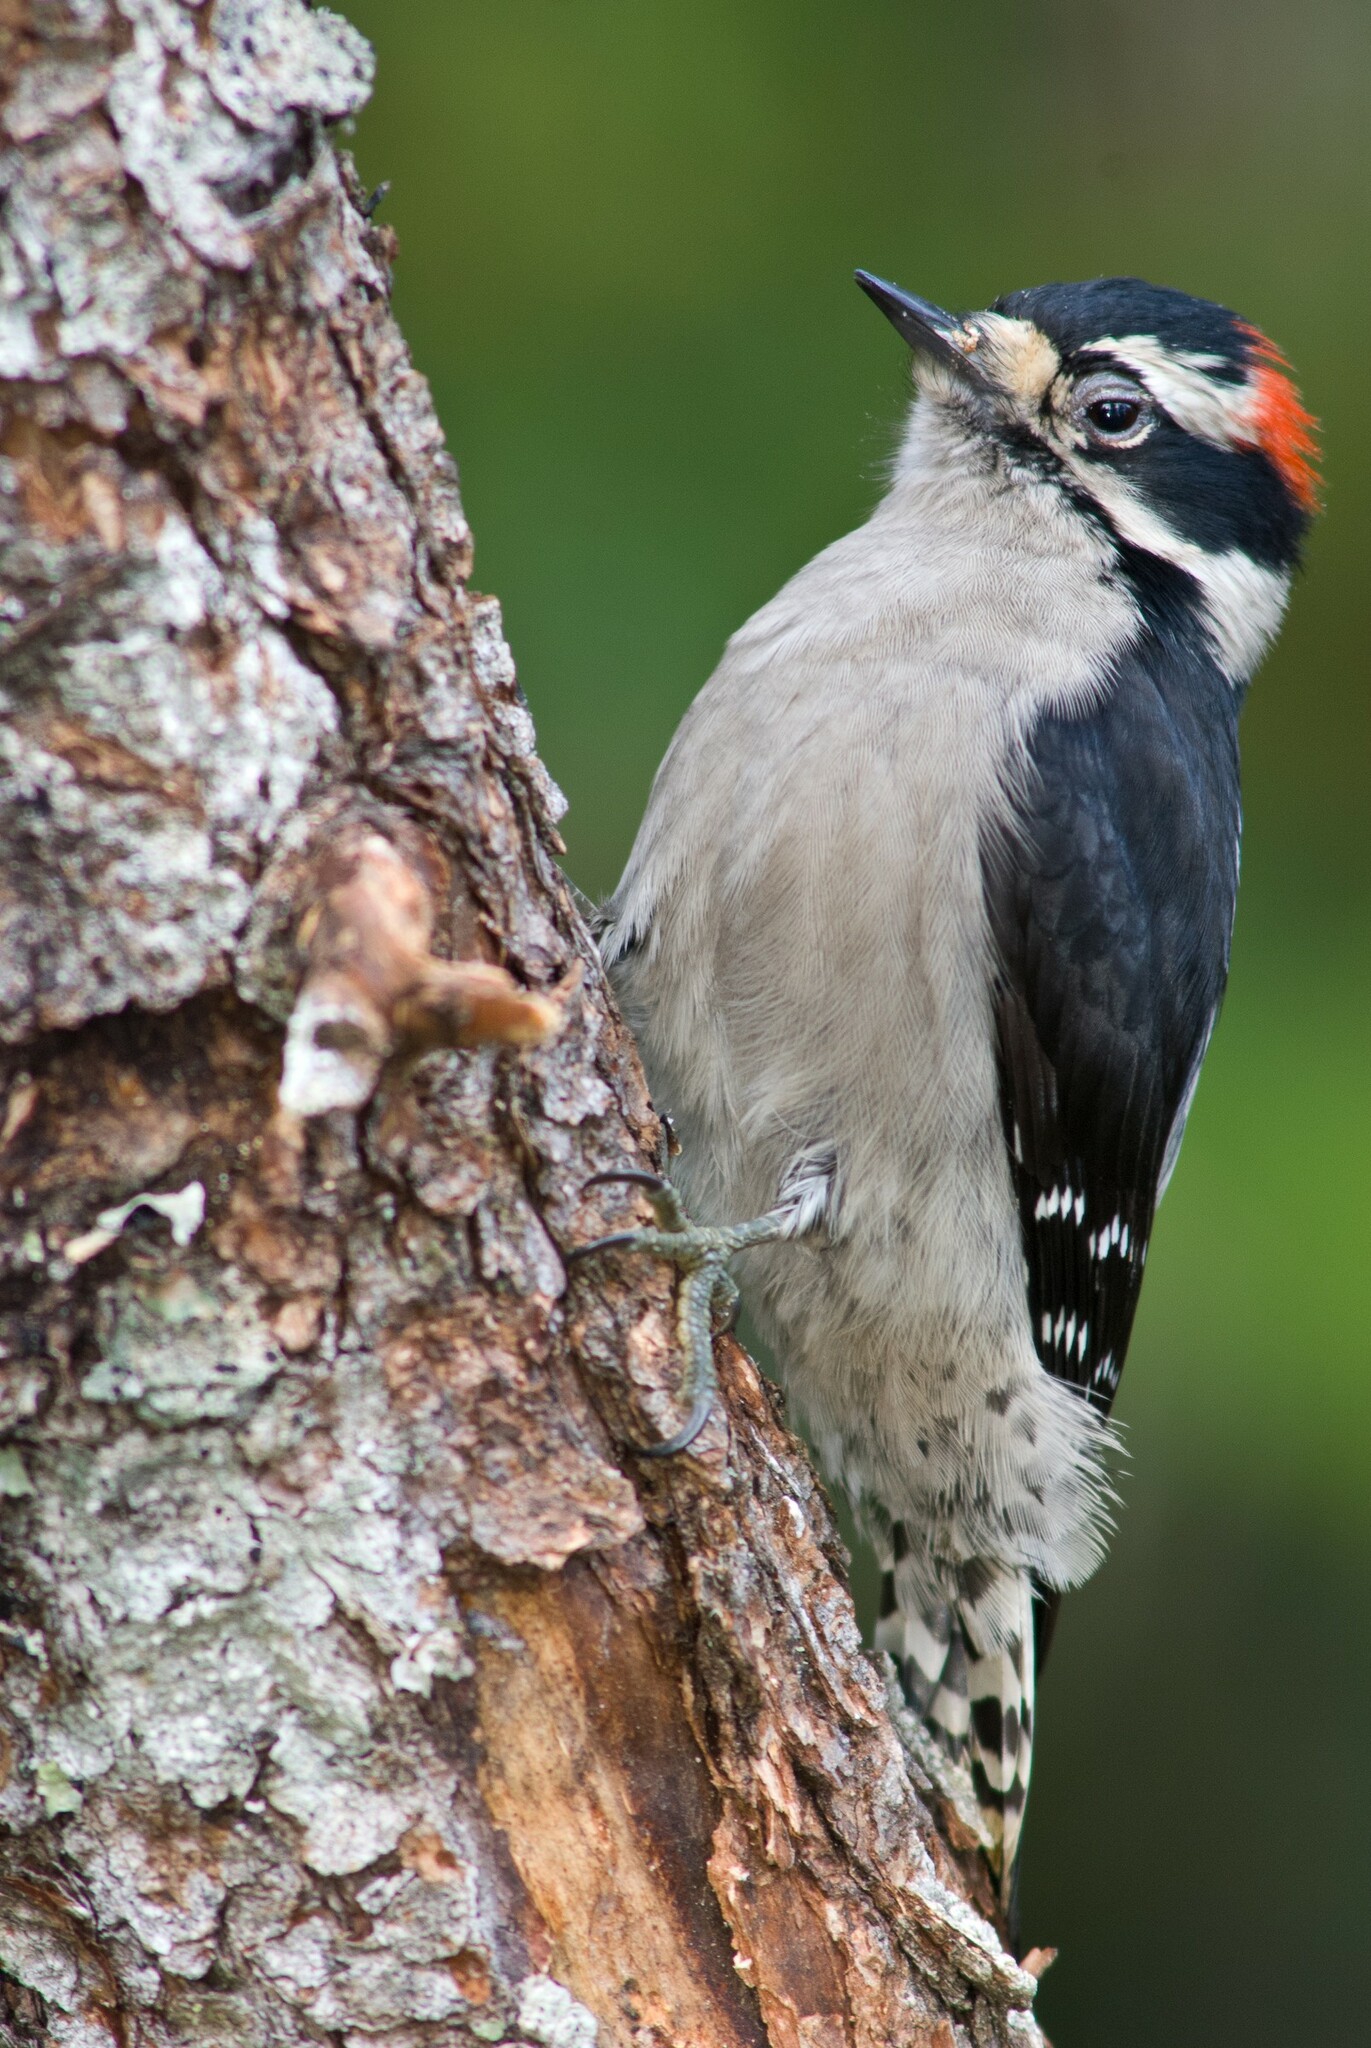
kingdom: Animalia
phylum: Chordata
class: Aves
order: Piciformes
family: Picidae
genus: Dryobates
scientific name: Dryobates pubescens
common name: Downy woodpecker
